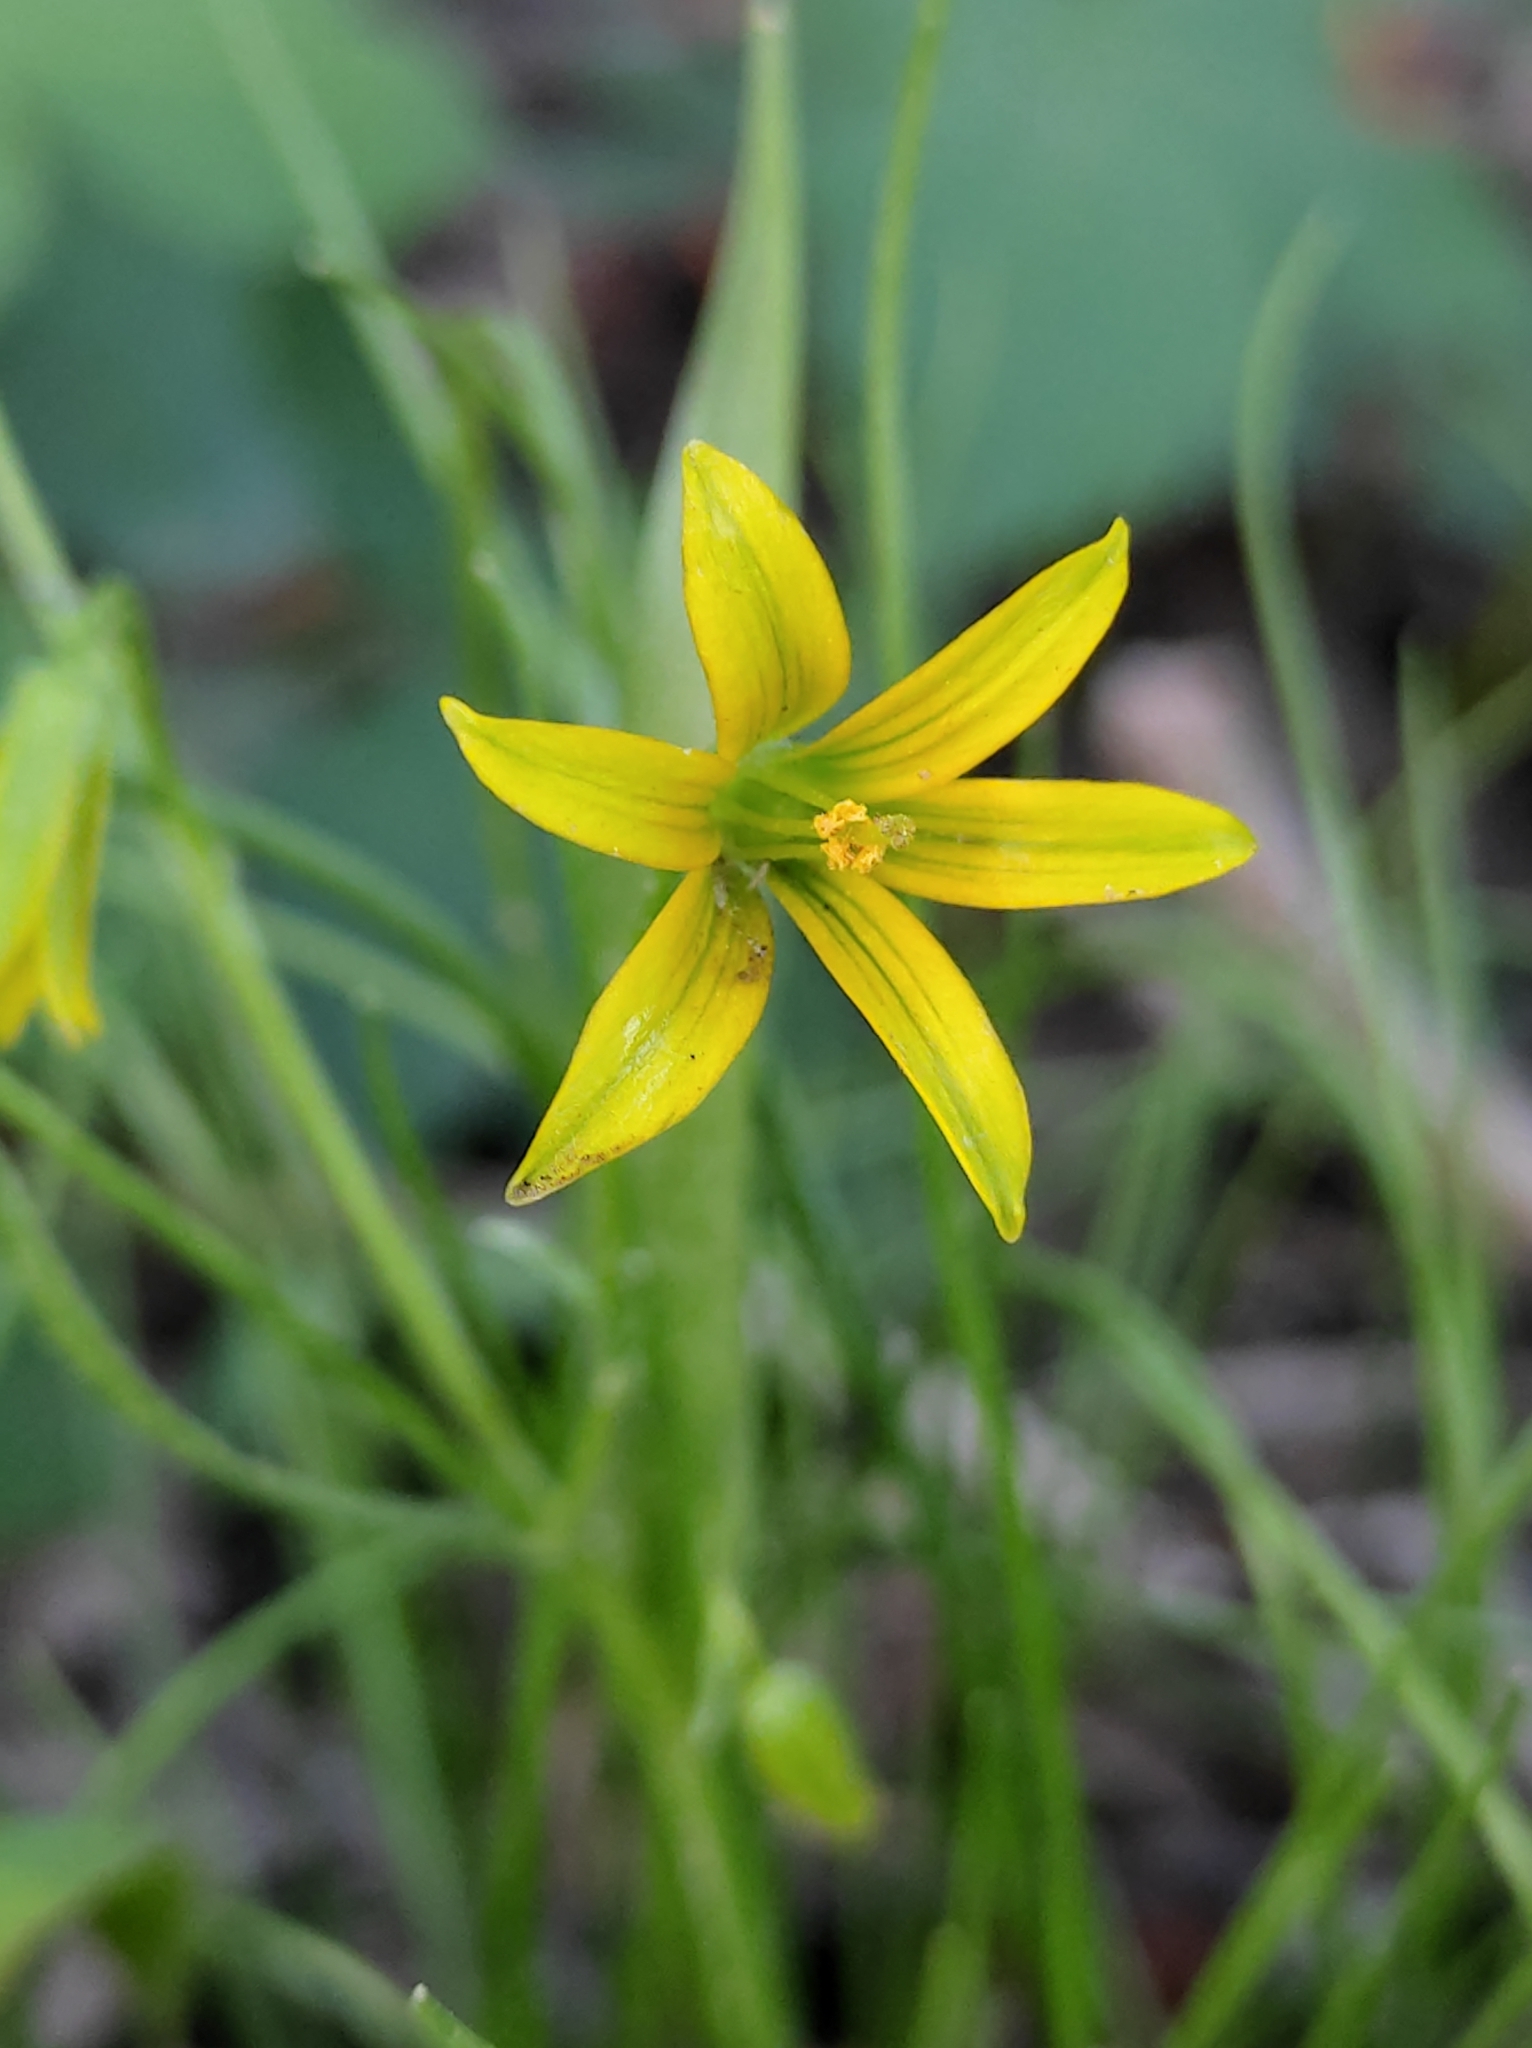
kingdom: Plantae
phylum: Tracheophyta
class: Liliopsida
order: Liliales
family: Liliaceae
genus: Gagea
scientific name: Gagea minima
